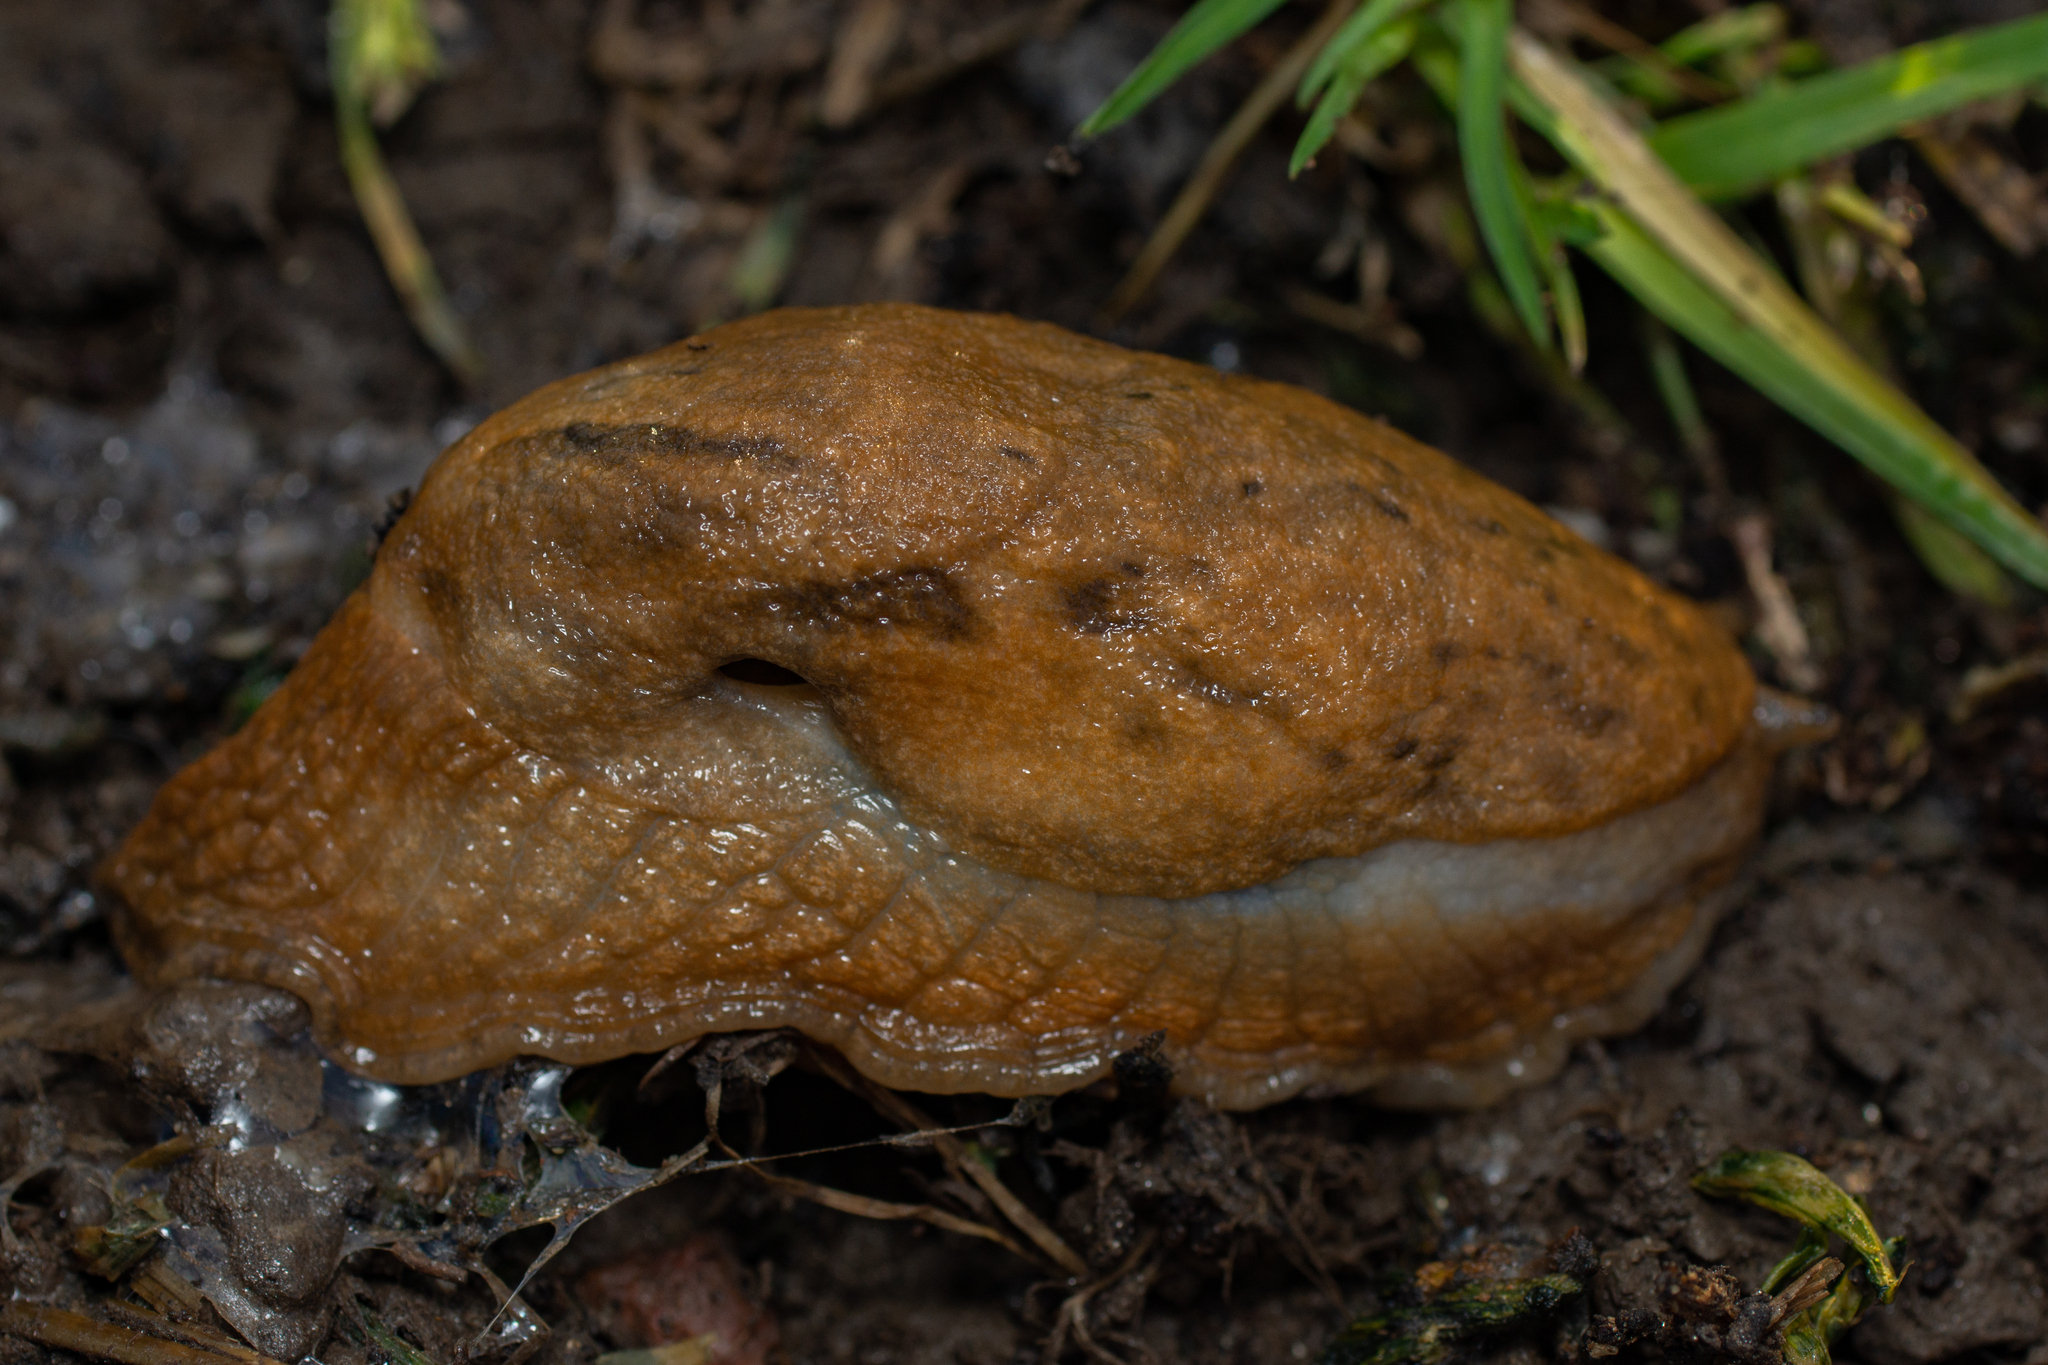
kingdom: Animalia
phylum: Mollusca
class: Gastropoda
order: Stylommatophora
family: Parmacellidae
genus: Drusia
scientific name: Drusia valenciennii
